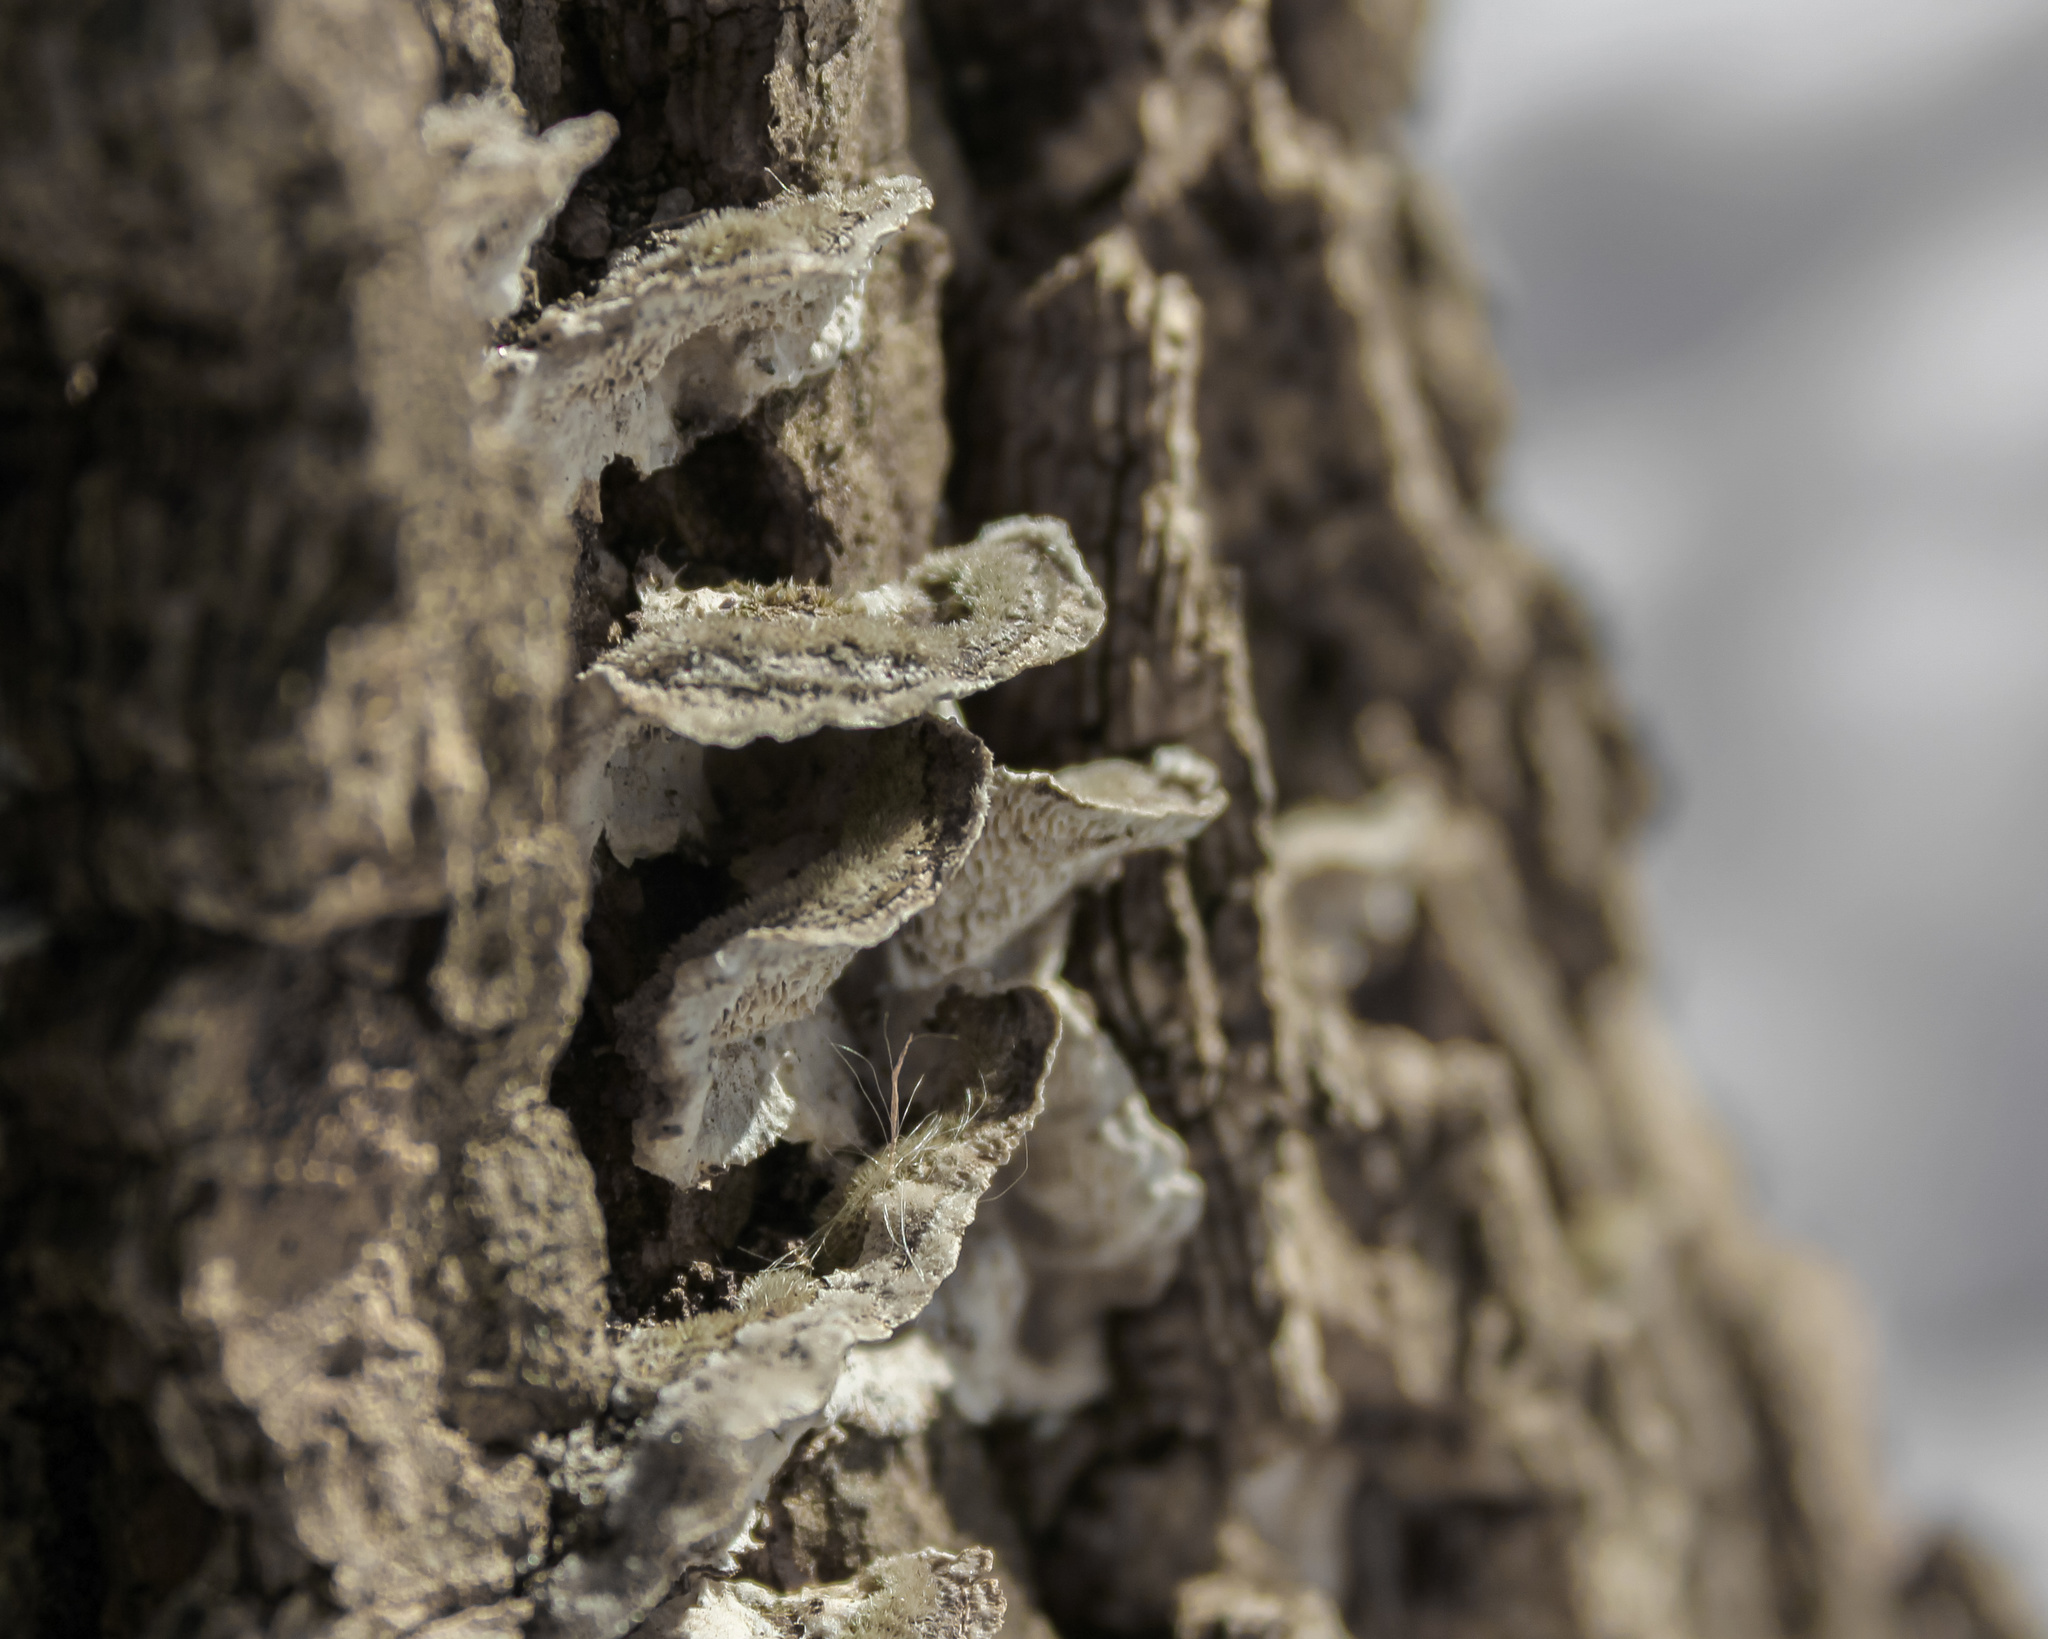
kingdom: Fungi
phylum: Basidiomycota
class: Agaricomycetes
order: Polyporales
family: Cerrenaceae
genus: Cerrena
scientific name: Cerrena unicolor
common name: Mossy maze polypore
